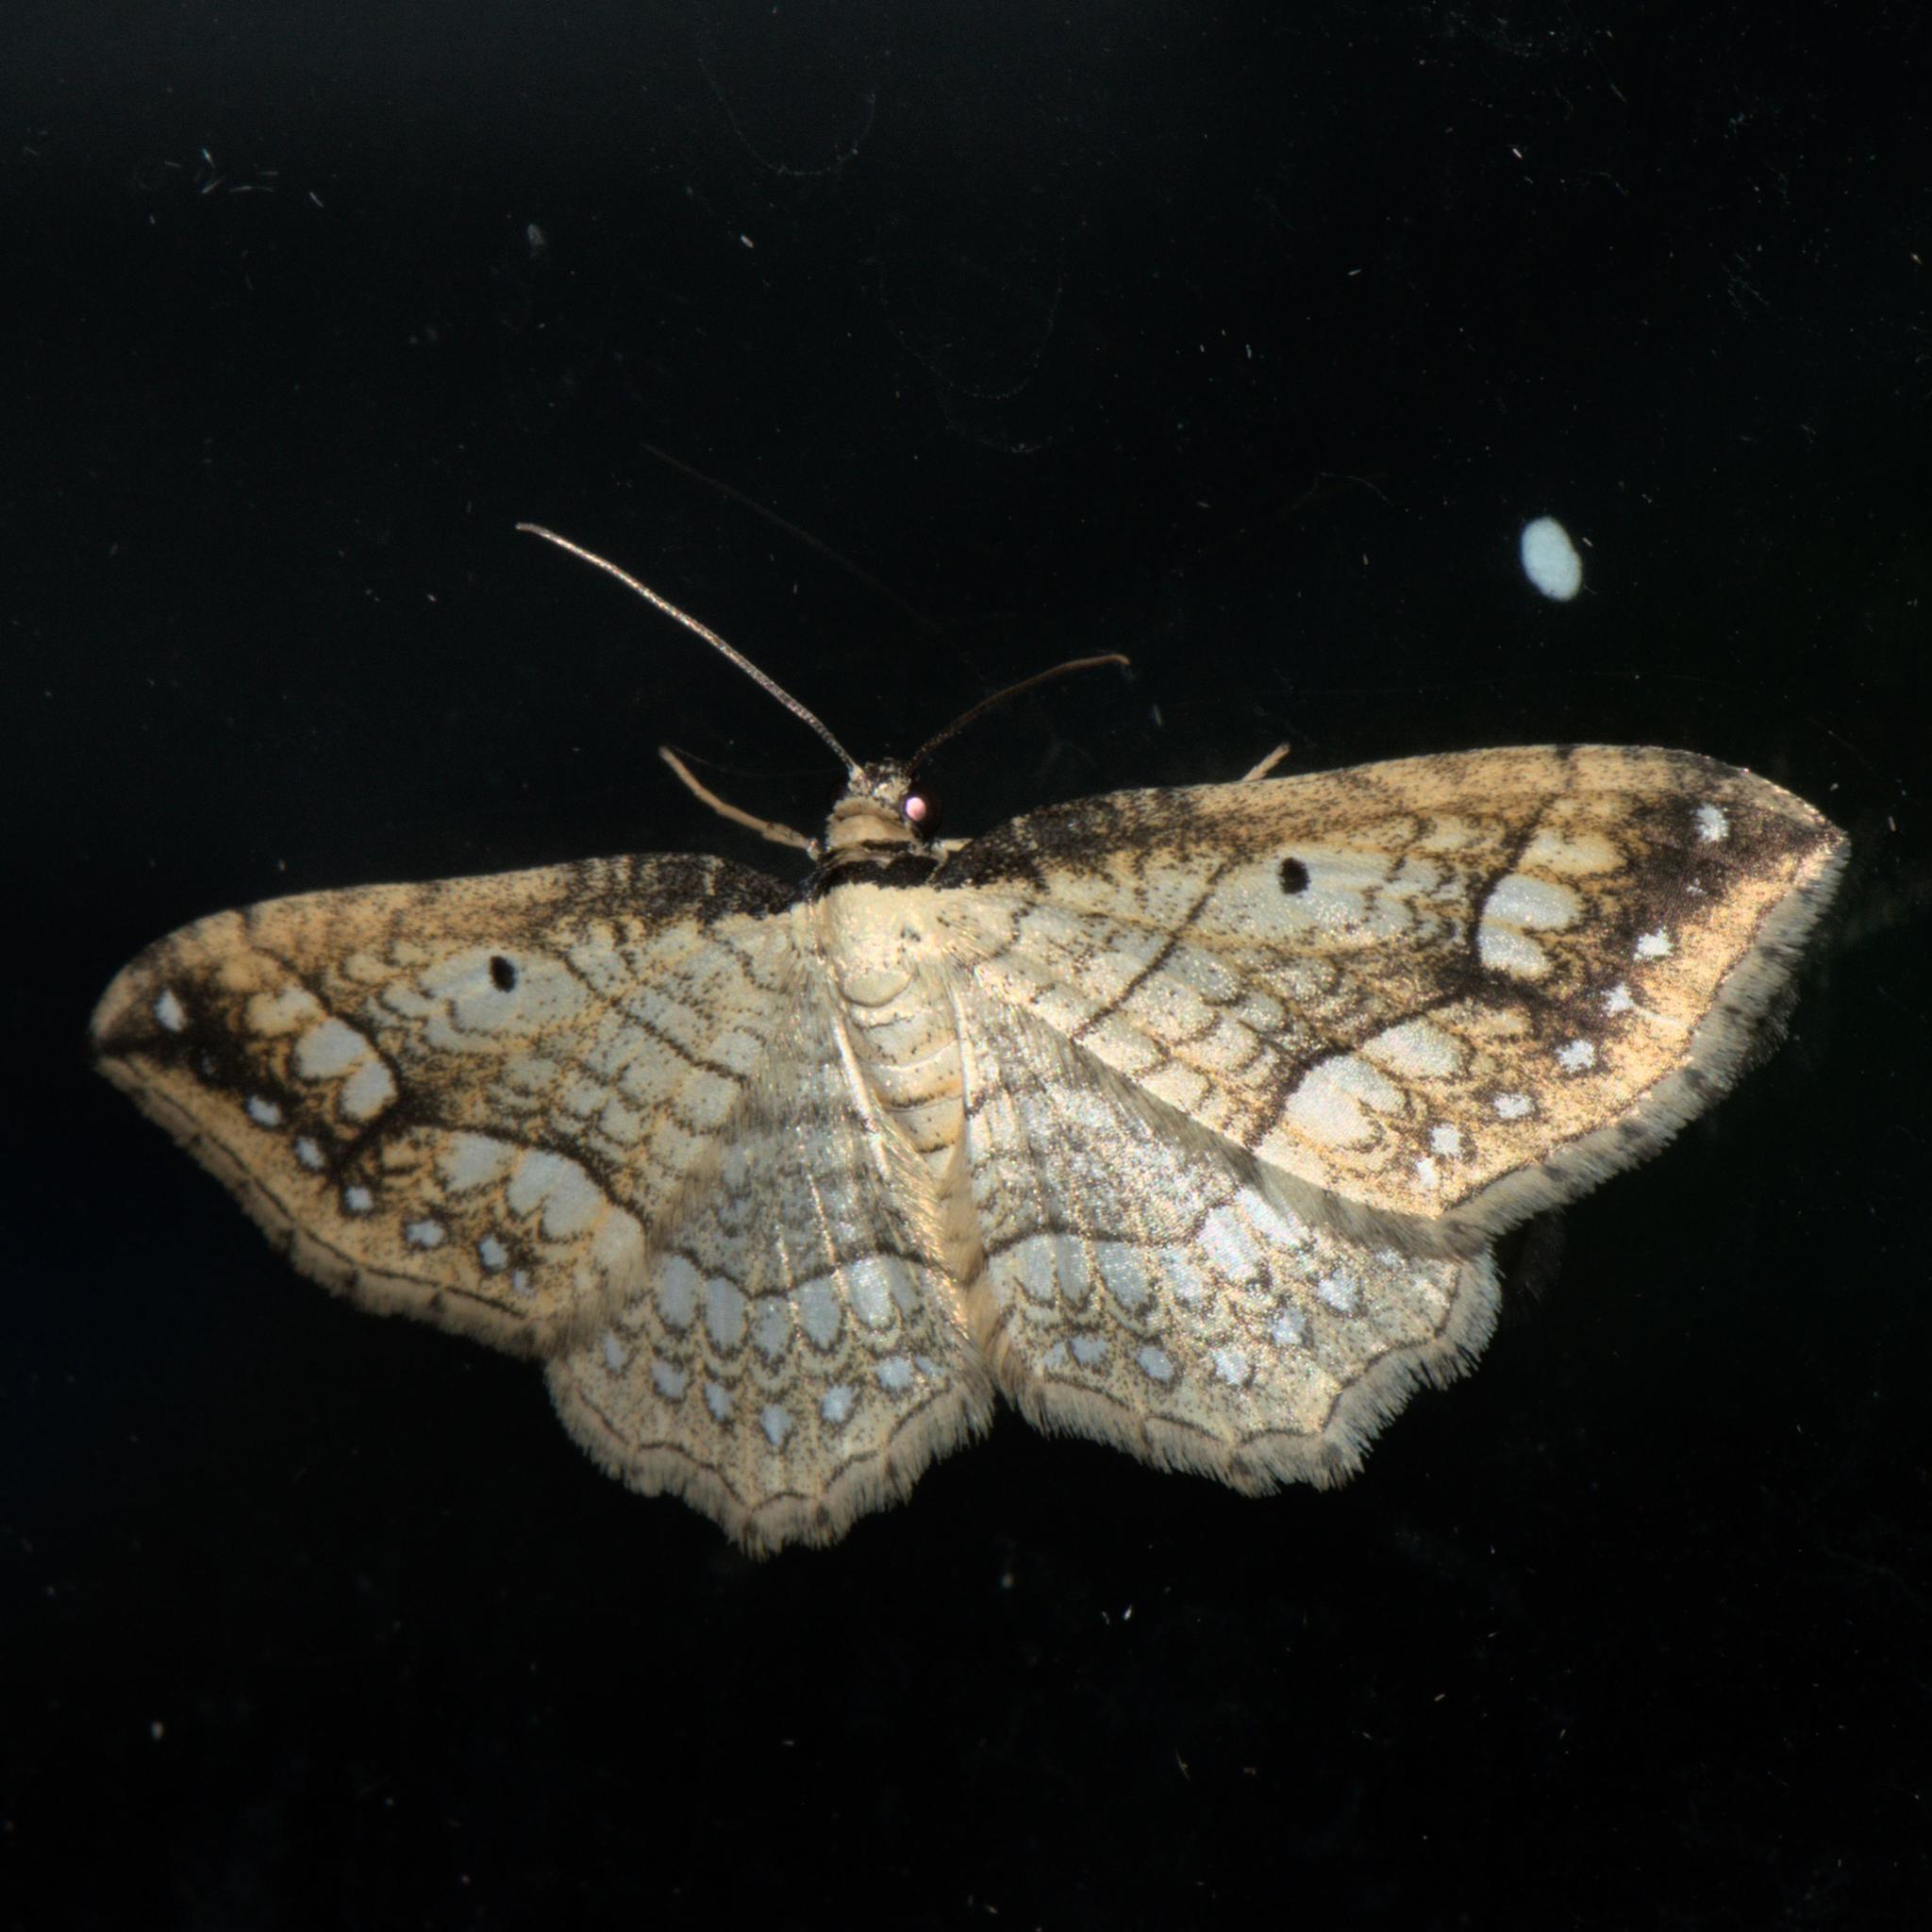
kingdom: Animalia
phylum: Arthropoda
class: Insecta
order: Lepidoptera
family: Geometridae
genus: Laciniodes
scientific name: Laciniodes plurilinearia
